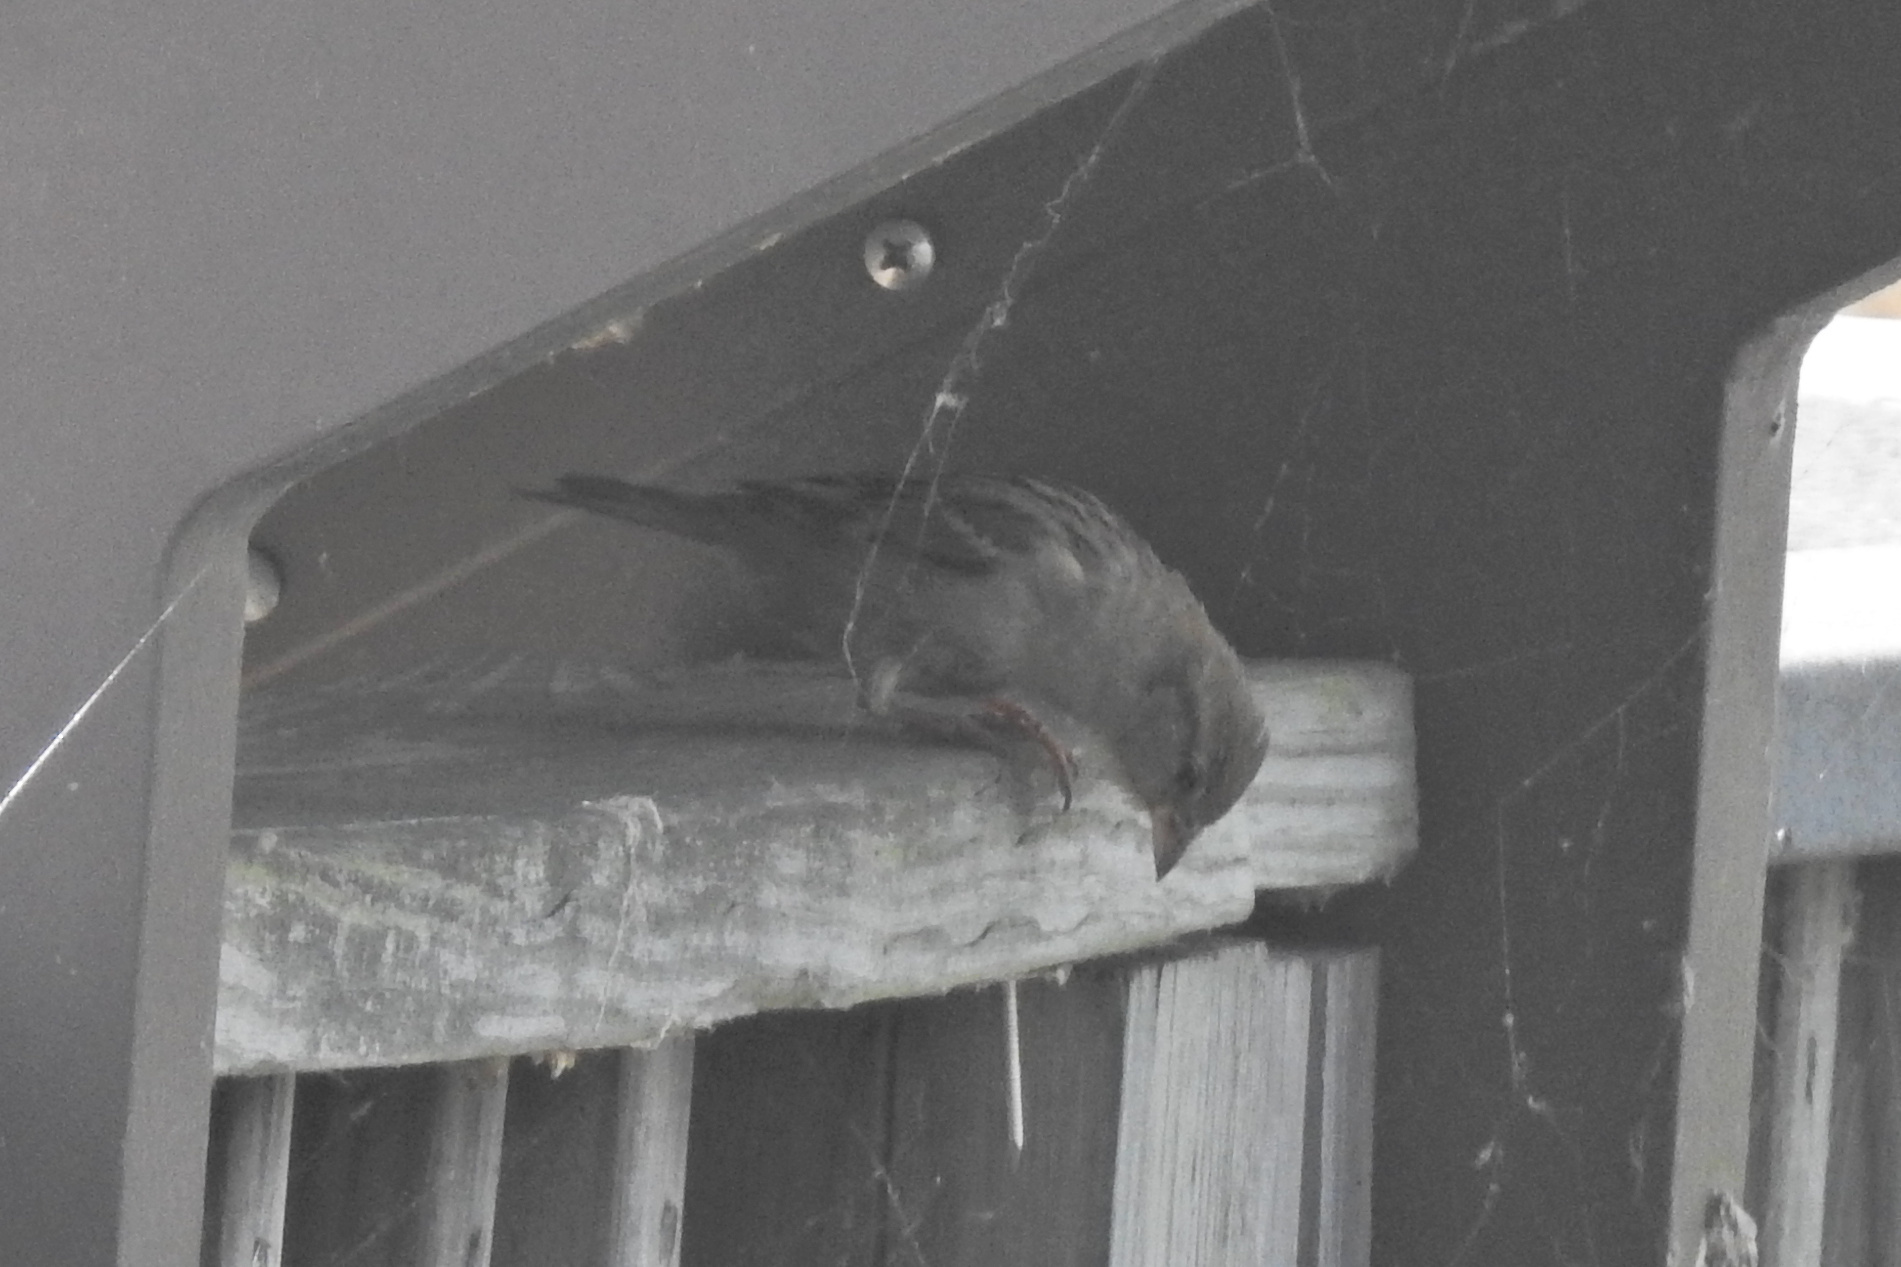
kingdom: Animalia
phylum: Chordata
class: Aves
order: Passeriformes
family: Passeridae
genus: Passer
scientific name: Passer domesticus
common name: House sparrow
